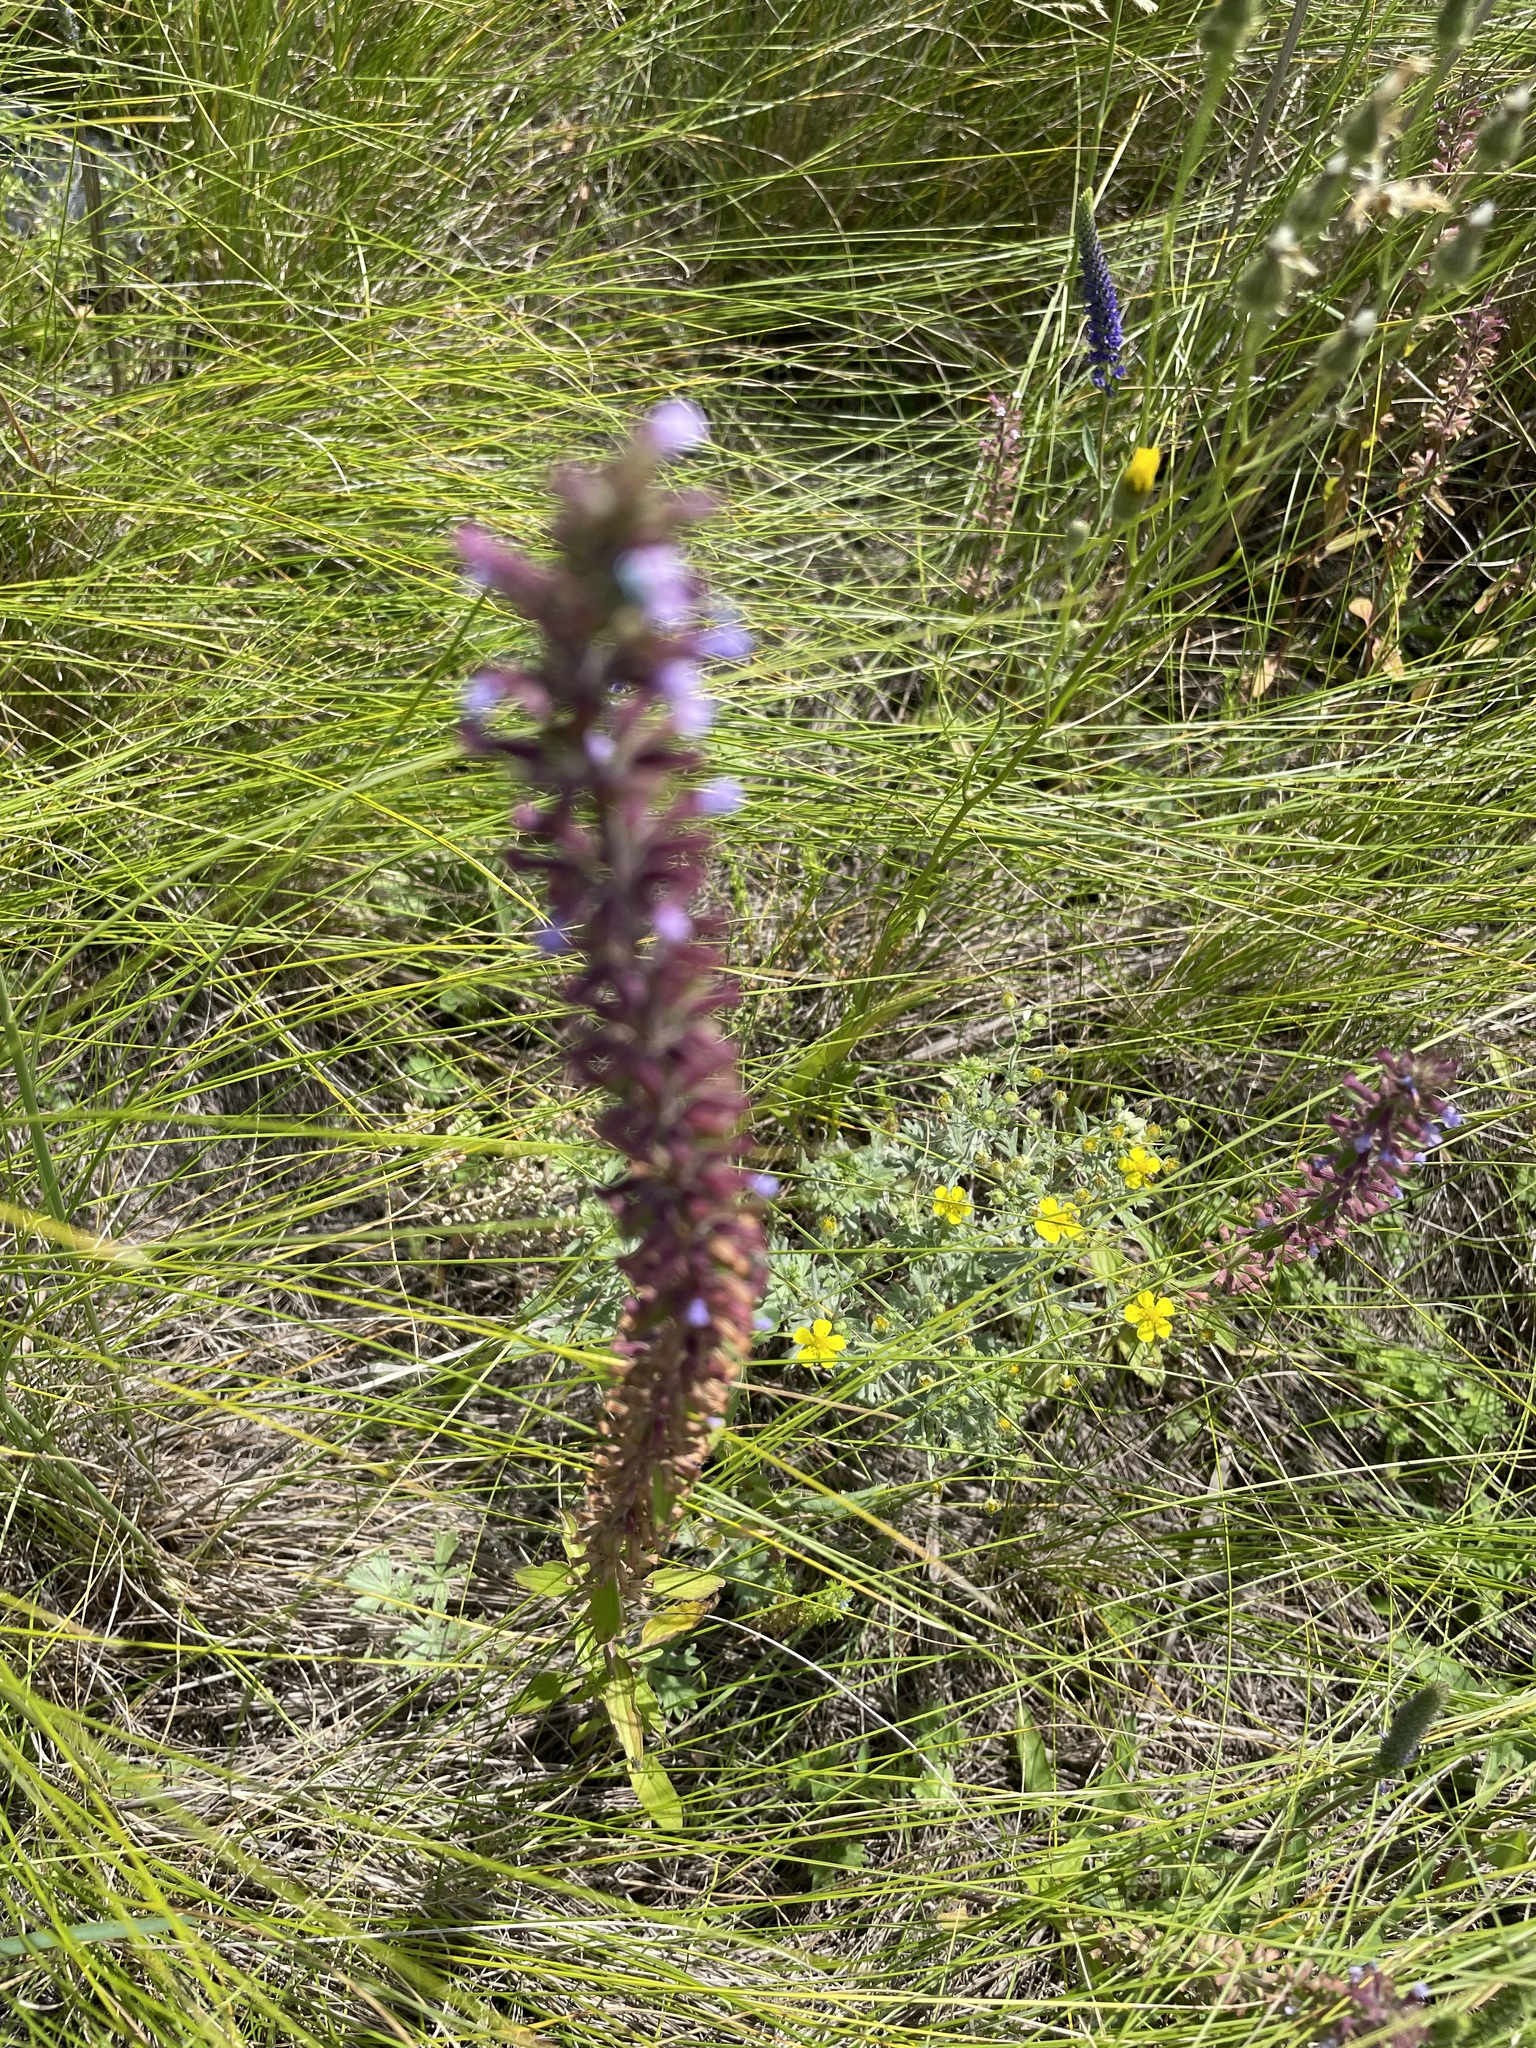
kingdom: Plantae
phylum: Tracheophyta
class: Magnoliopsida
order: Lamiales
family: Lamiaceae
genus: Dracocephalum
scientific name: Dracocephalum thymiflorum
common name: Thymeleaf dragonhead
